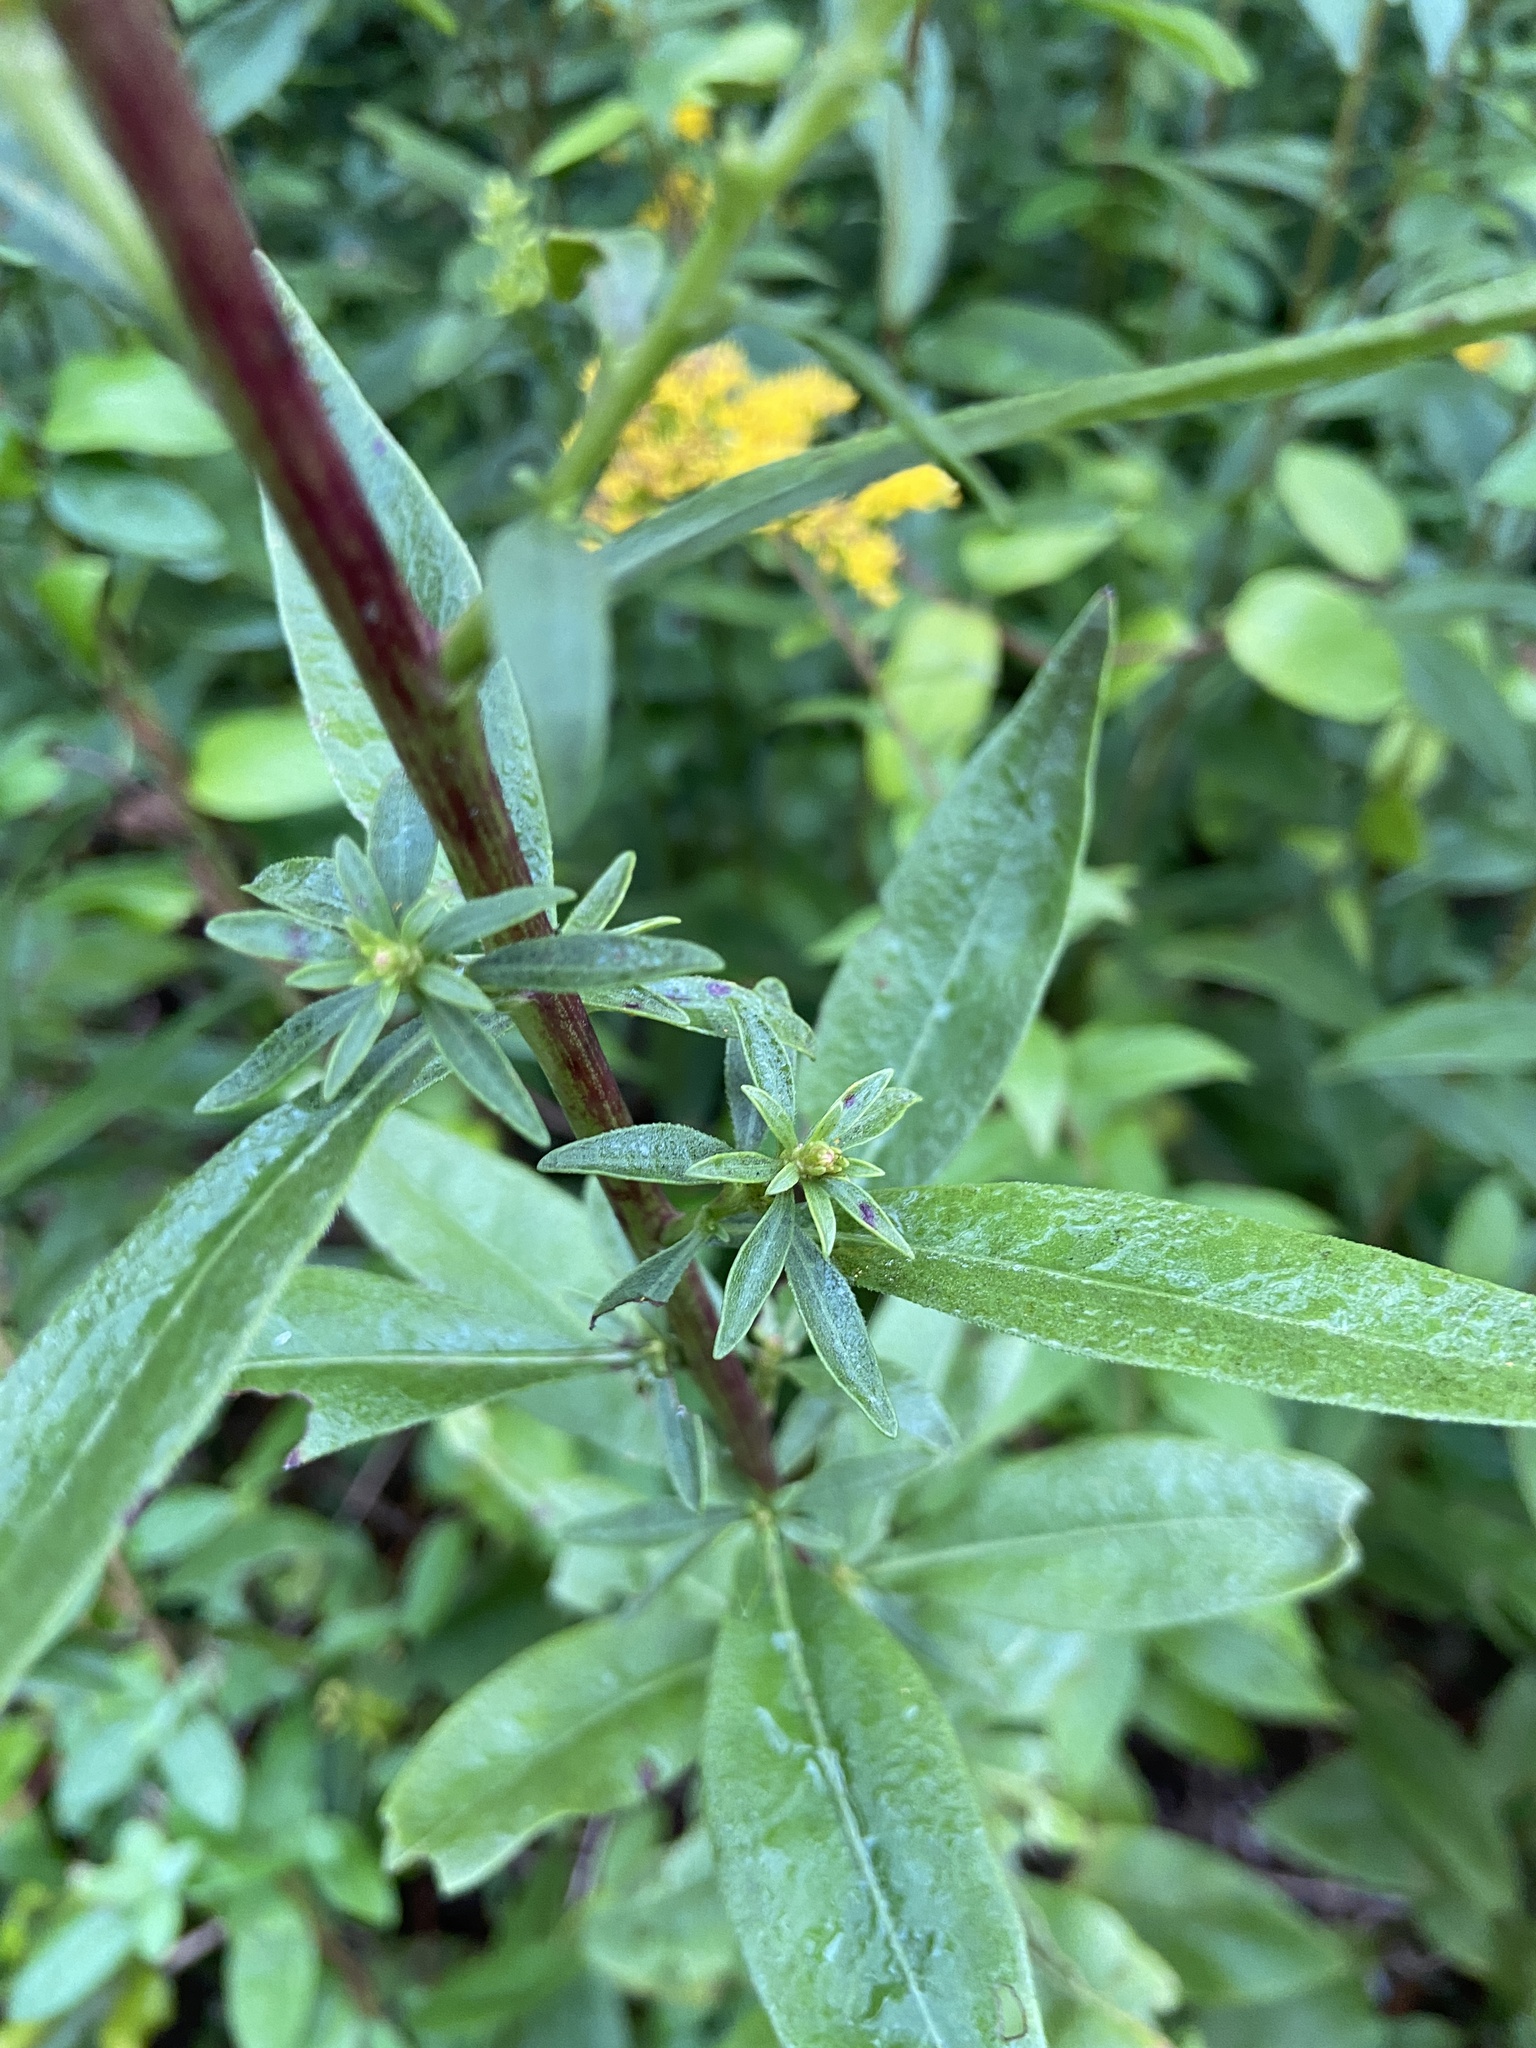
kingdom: Plantae
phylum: Tracheophyta
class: Magnoliopsida
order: Asterales
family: Asteraceae
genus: Solidago
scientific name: Solidago speciosa
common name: Showy goldenrod
